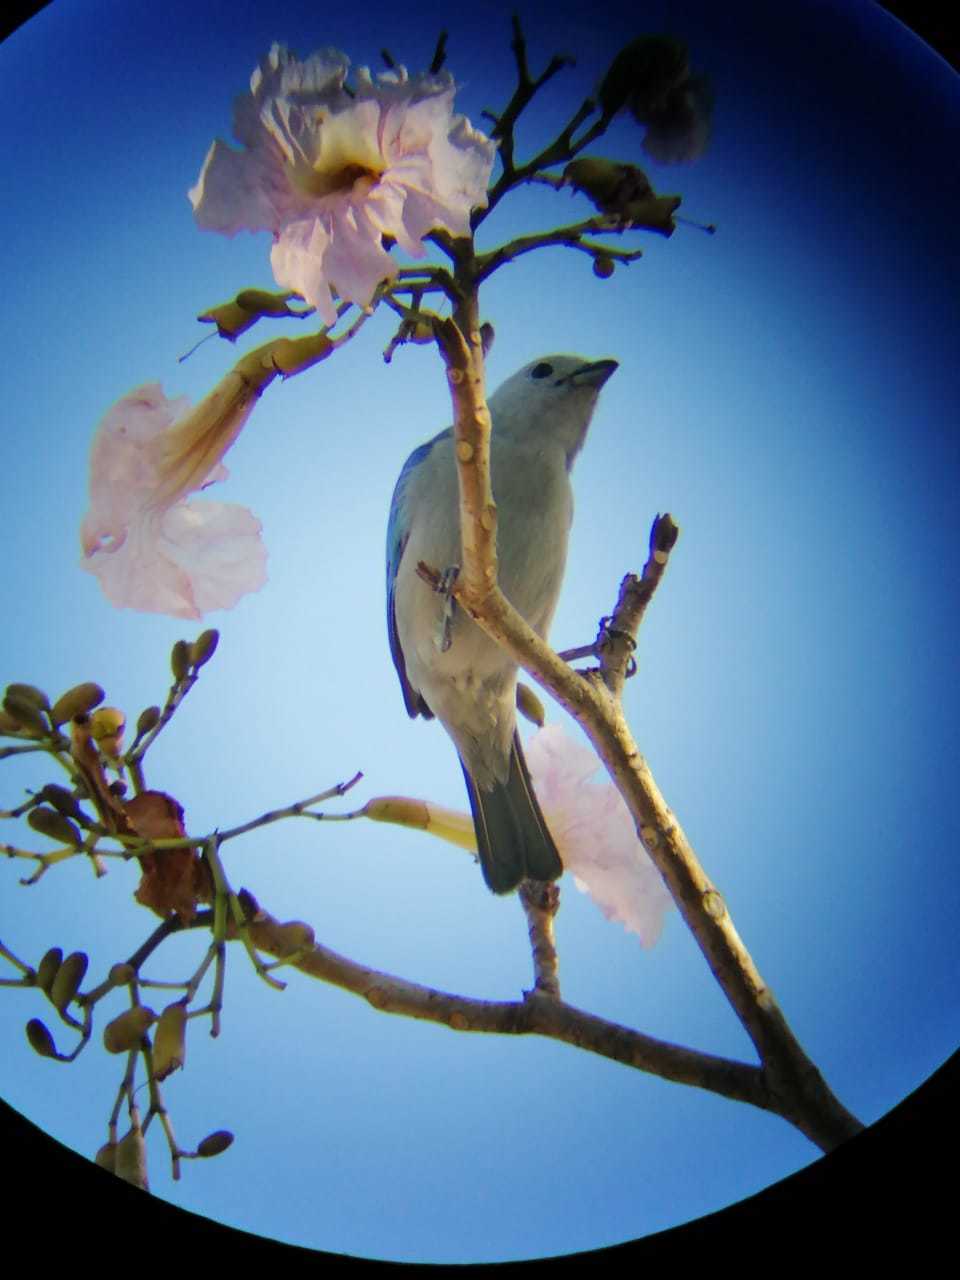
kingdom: Animalia
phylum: Chordata
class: Aves
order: Passeriformes
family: Thraupidae
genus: Thraupis
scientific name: Thraupis episcopus
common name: Blue-grey tanager
